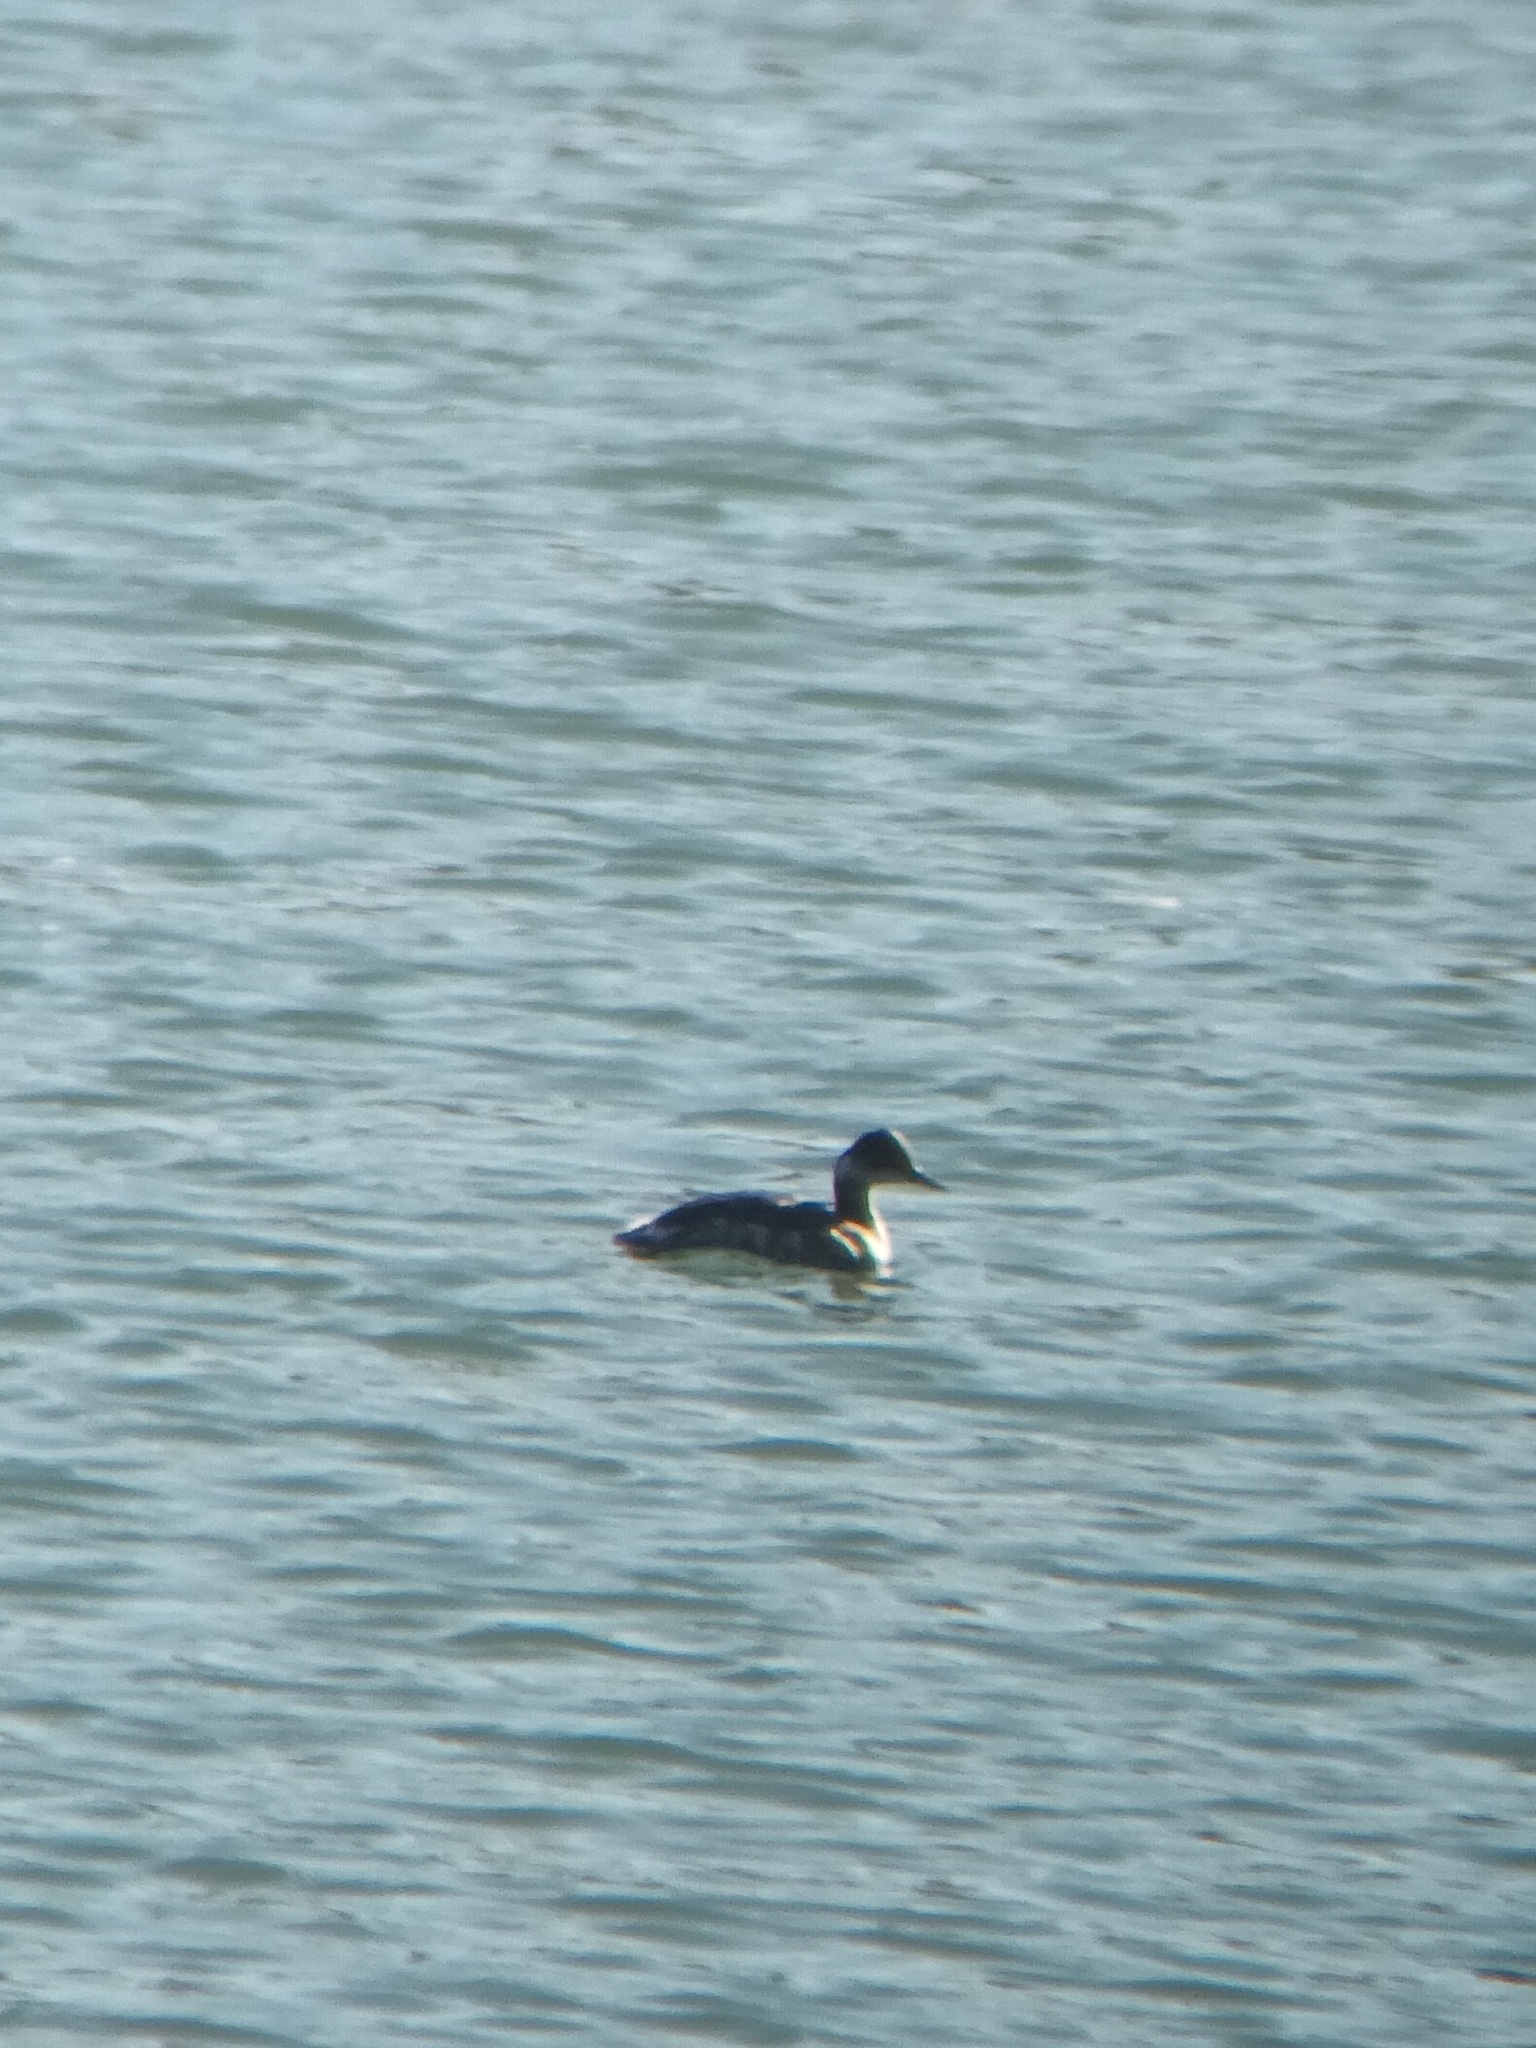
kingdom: Animalia
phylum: Chordata
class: Aves
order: Podicipediformes
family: Podicipedidae
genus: Podiceps
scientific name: Podiceps nigricollis
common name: Black-necked grebe
